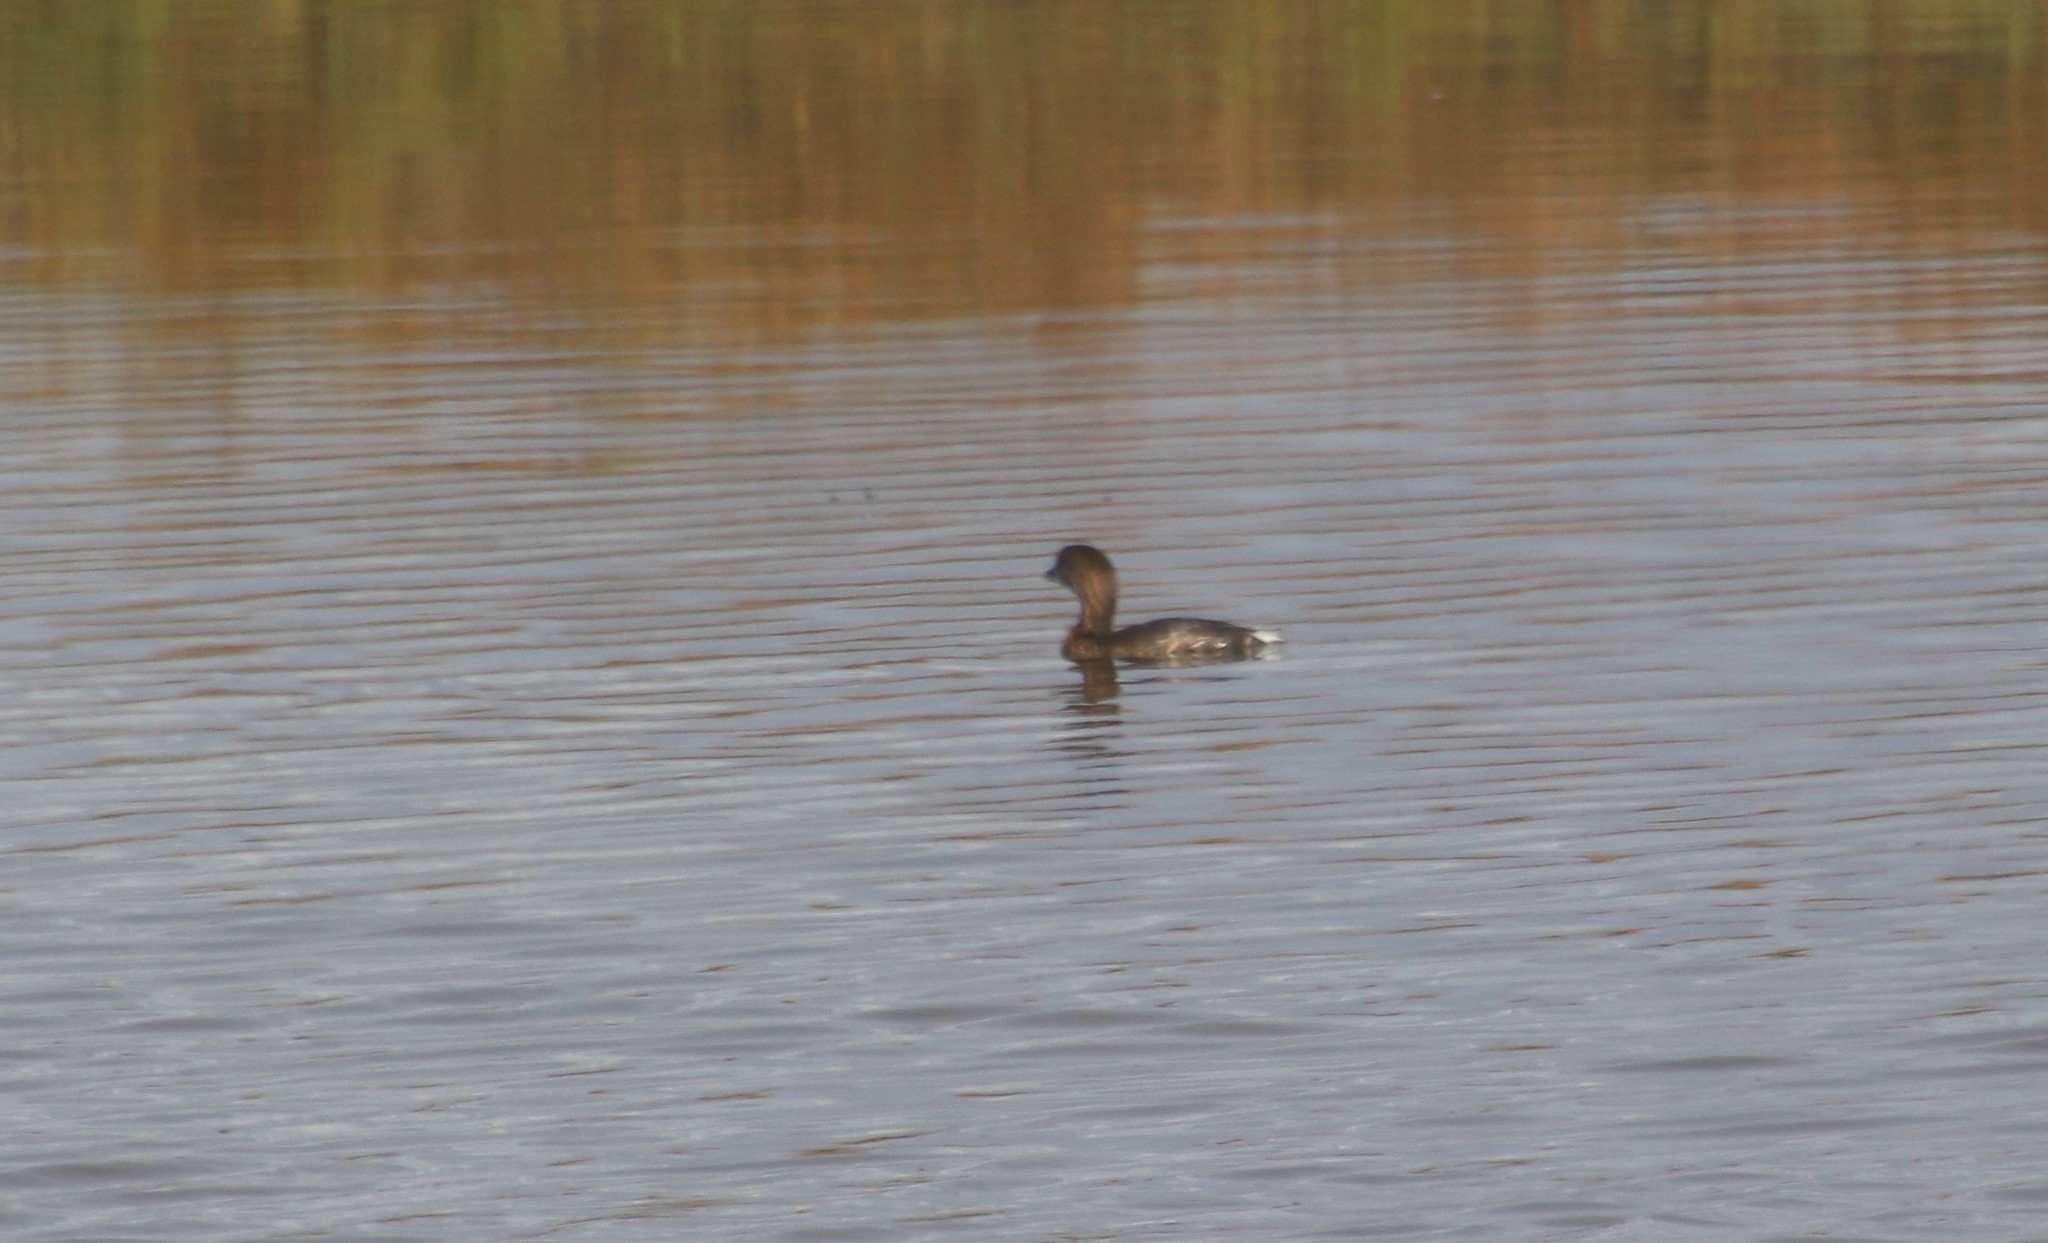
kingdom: Animalia
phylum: Chordata
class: Aves
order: Podicipediformes
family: Podicipedidae
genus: Podilymbus
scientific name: Podilymbus podiceps
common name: Pied-billed grebe
